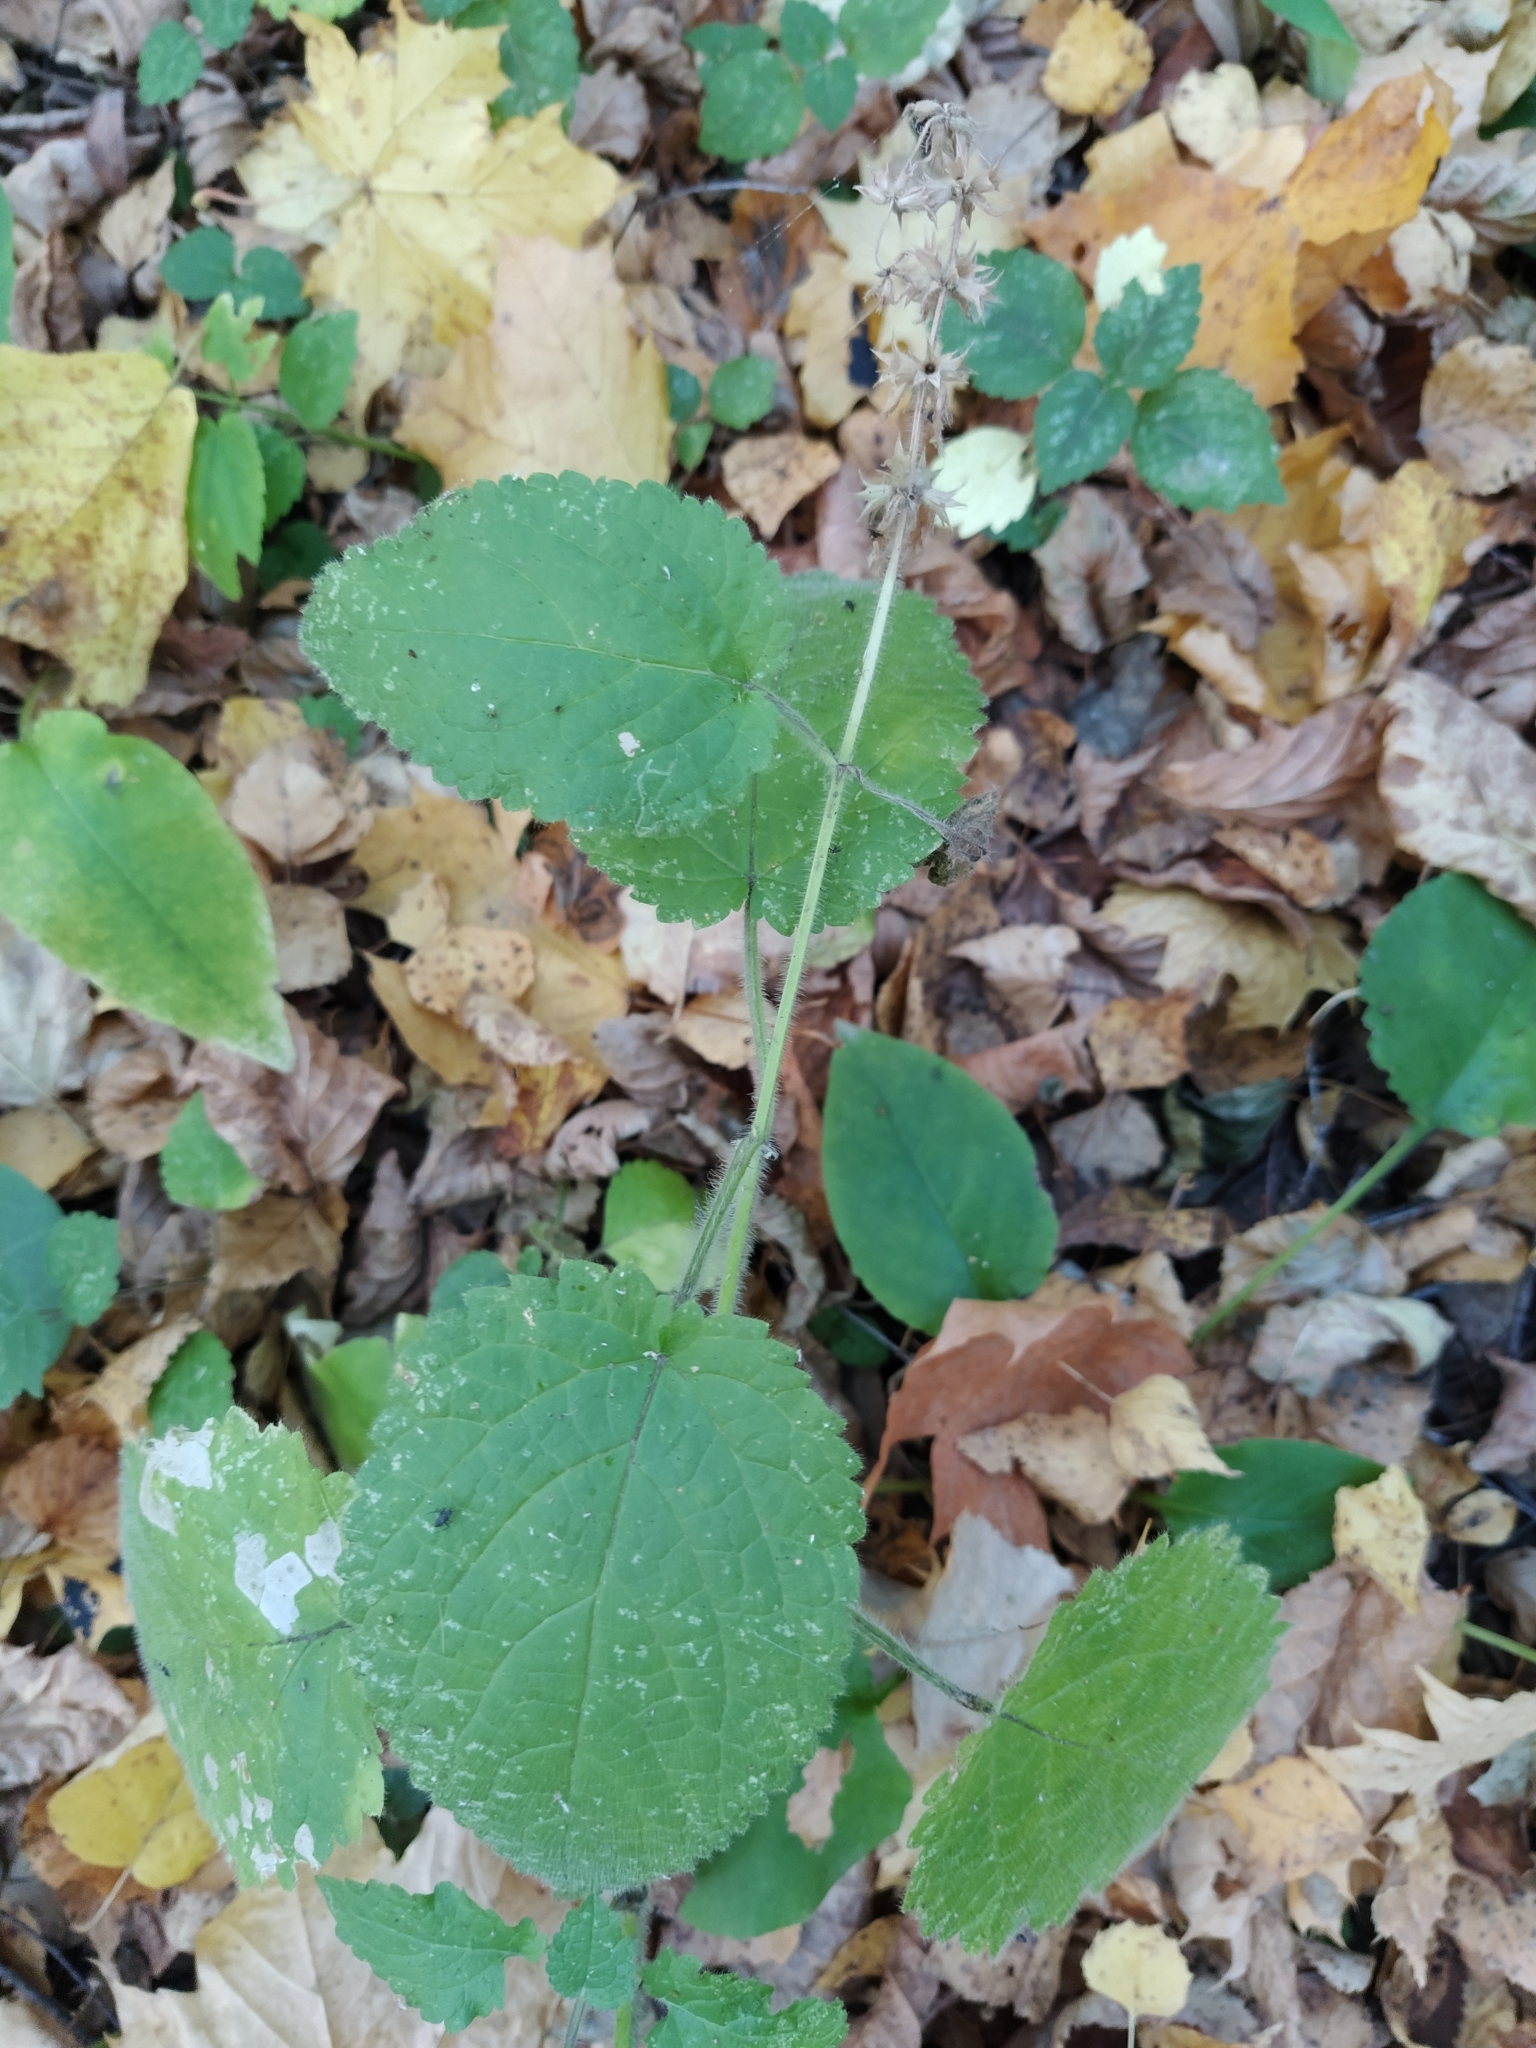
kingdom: Plantae
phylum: Tracheophyta
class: Magnoliopsida
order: Lamiales
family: Lamiaceae
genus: Stachys
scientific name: Stachys sylvatica
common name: Hedge woundwort
